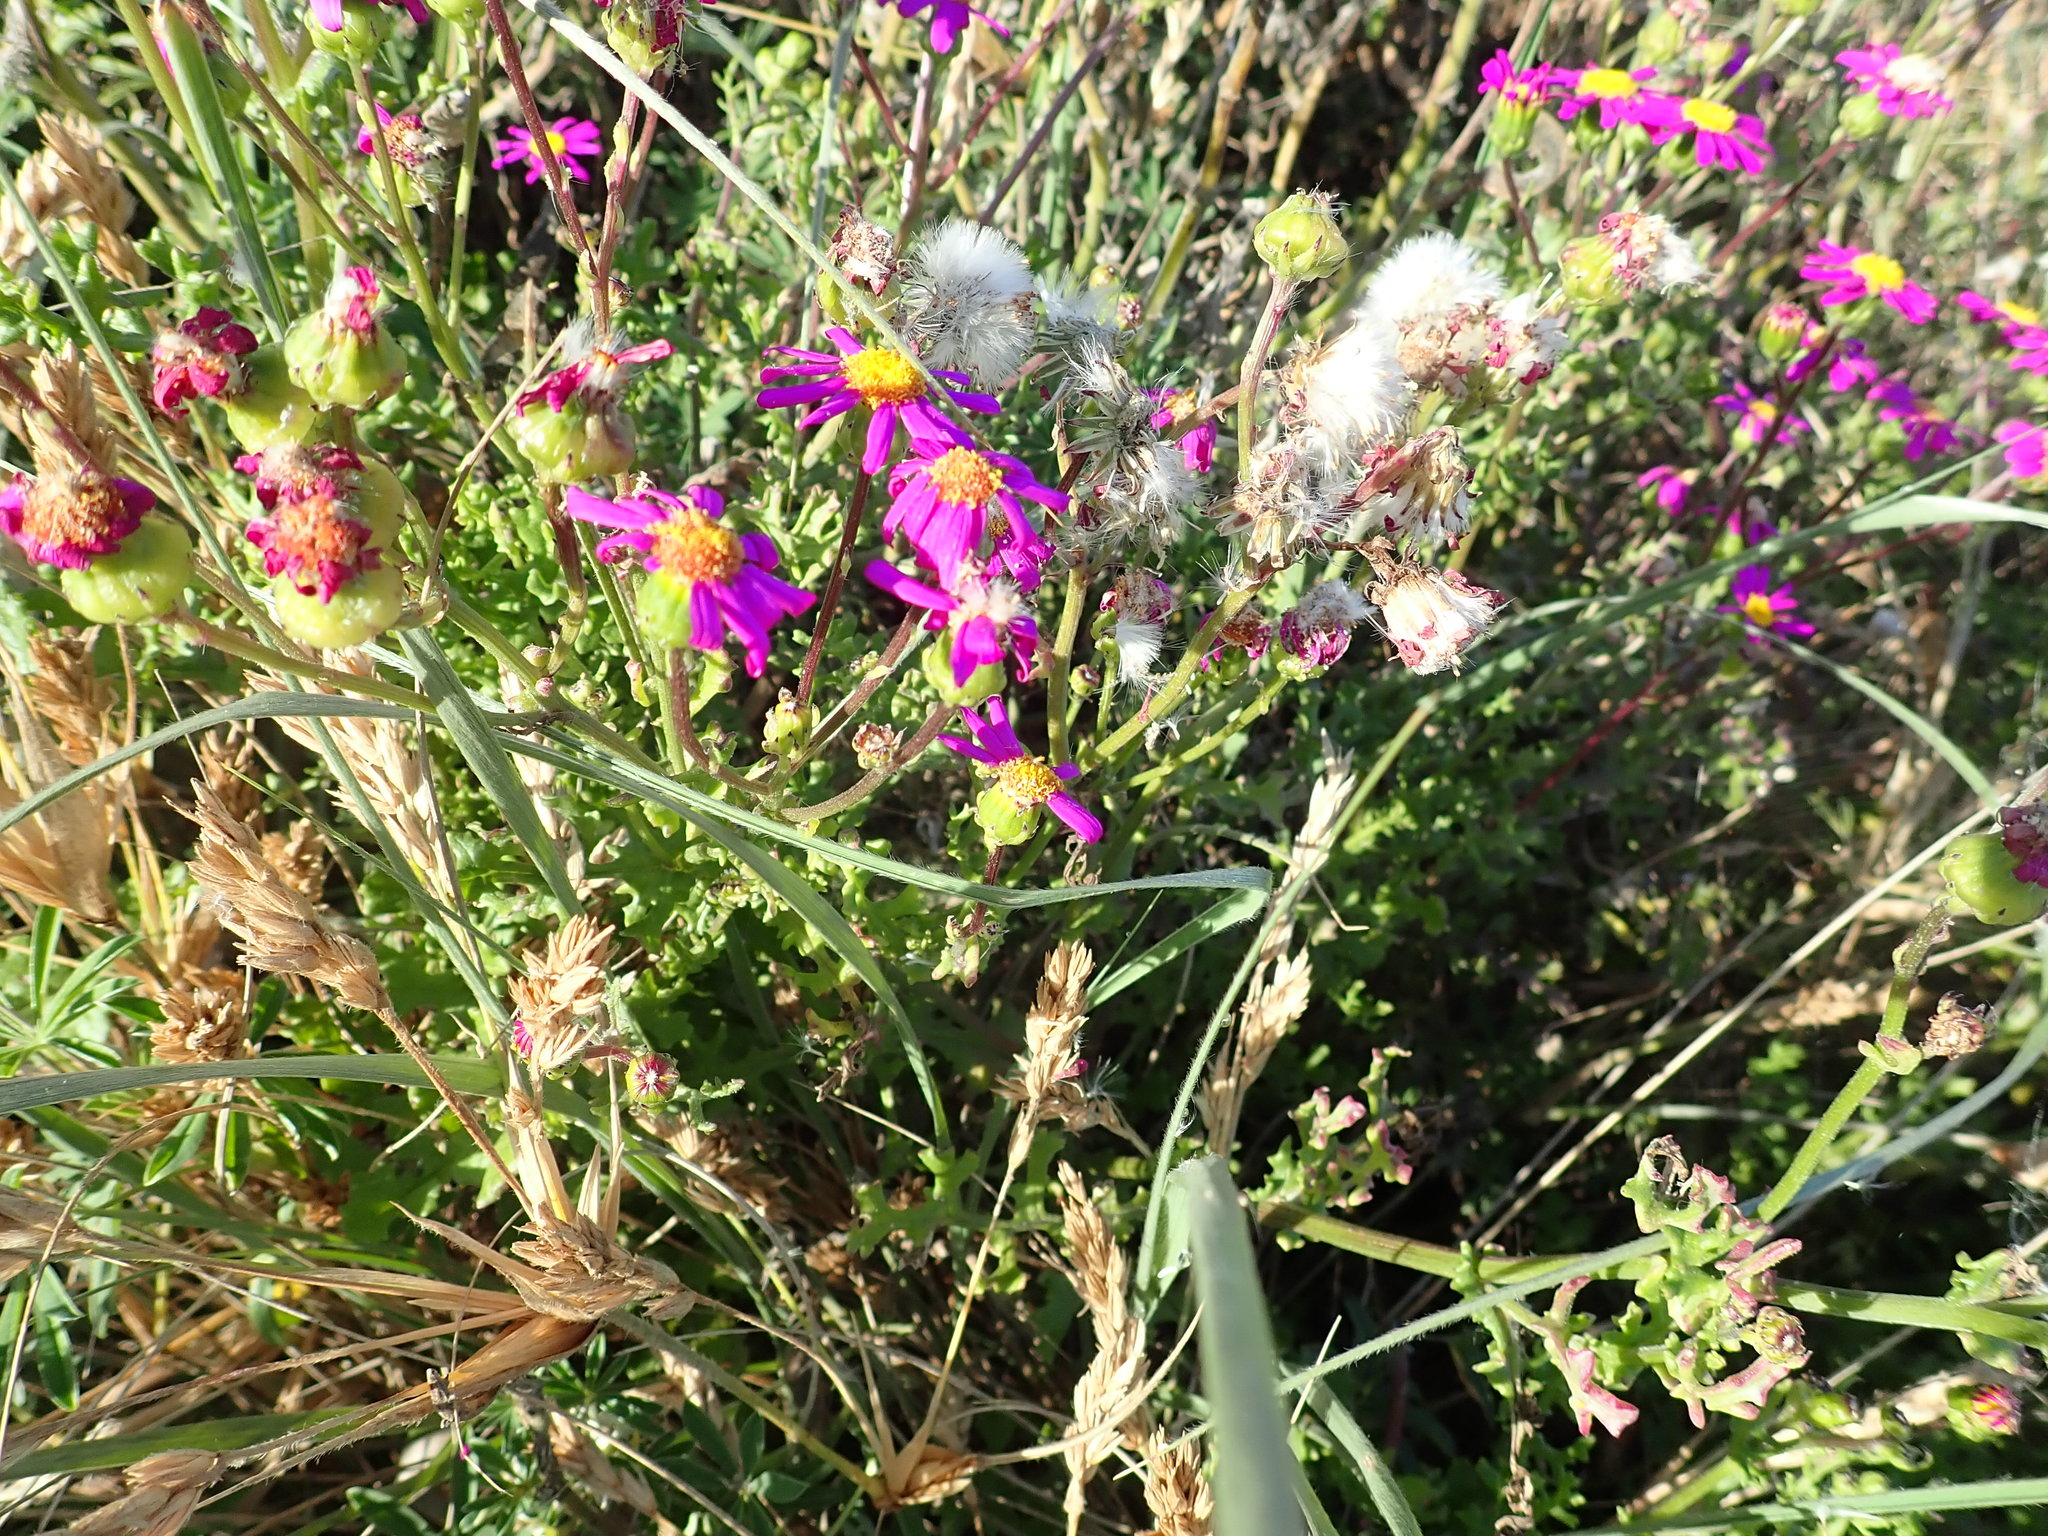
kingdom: Plantae
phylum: Tracheophyta
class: Magnoliopsida
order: Asterales
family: Asteraceae
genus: Senecio
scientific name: Senecio elegans
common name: Purple groundsel
